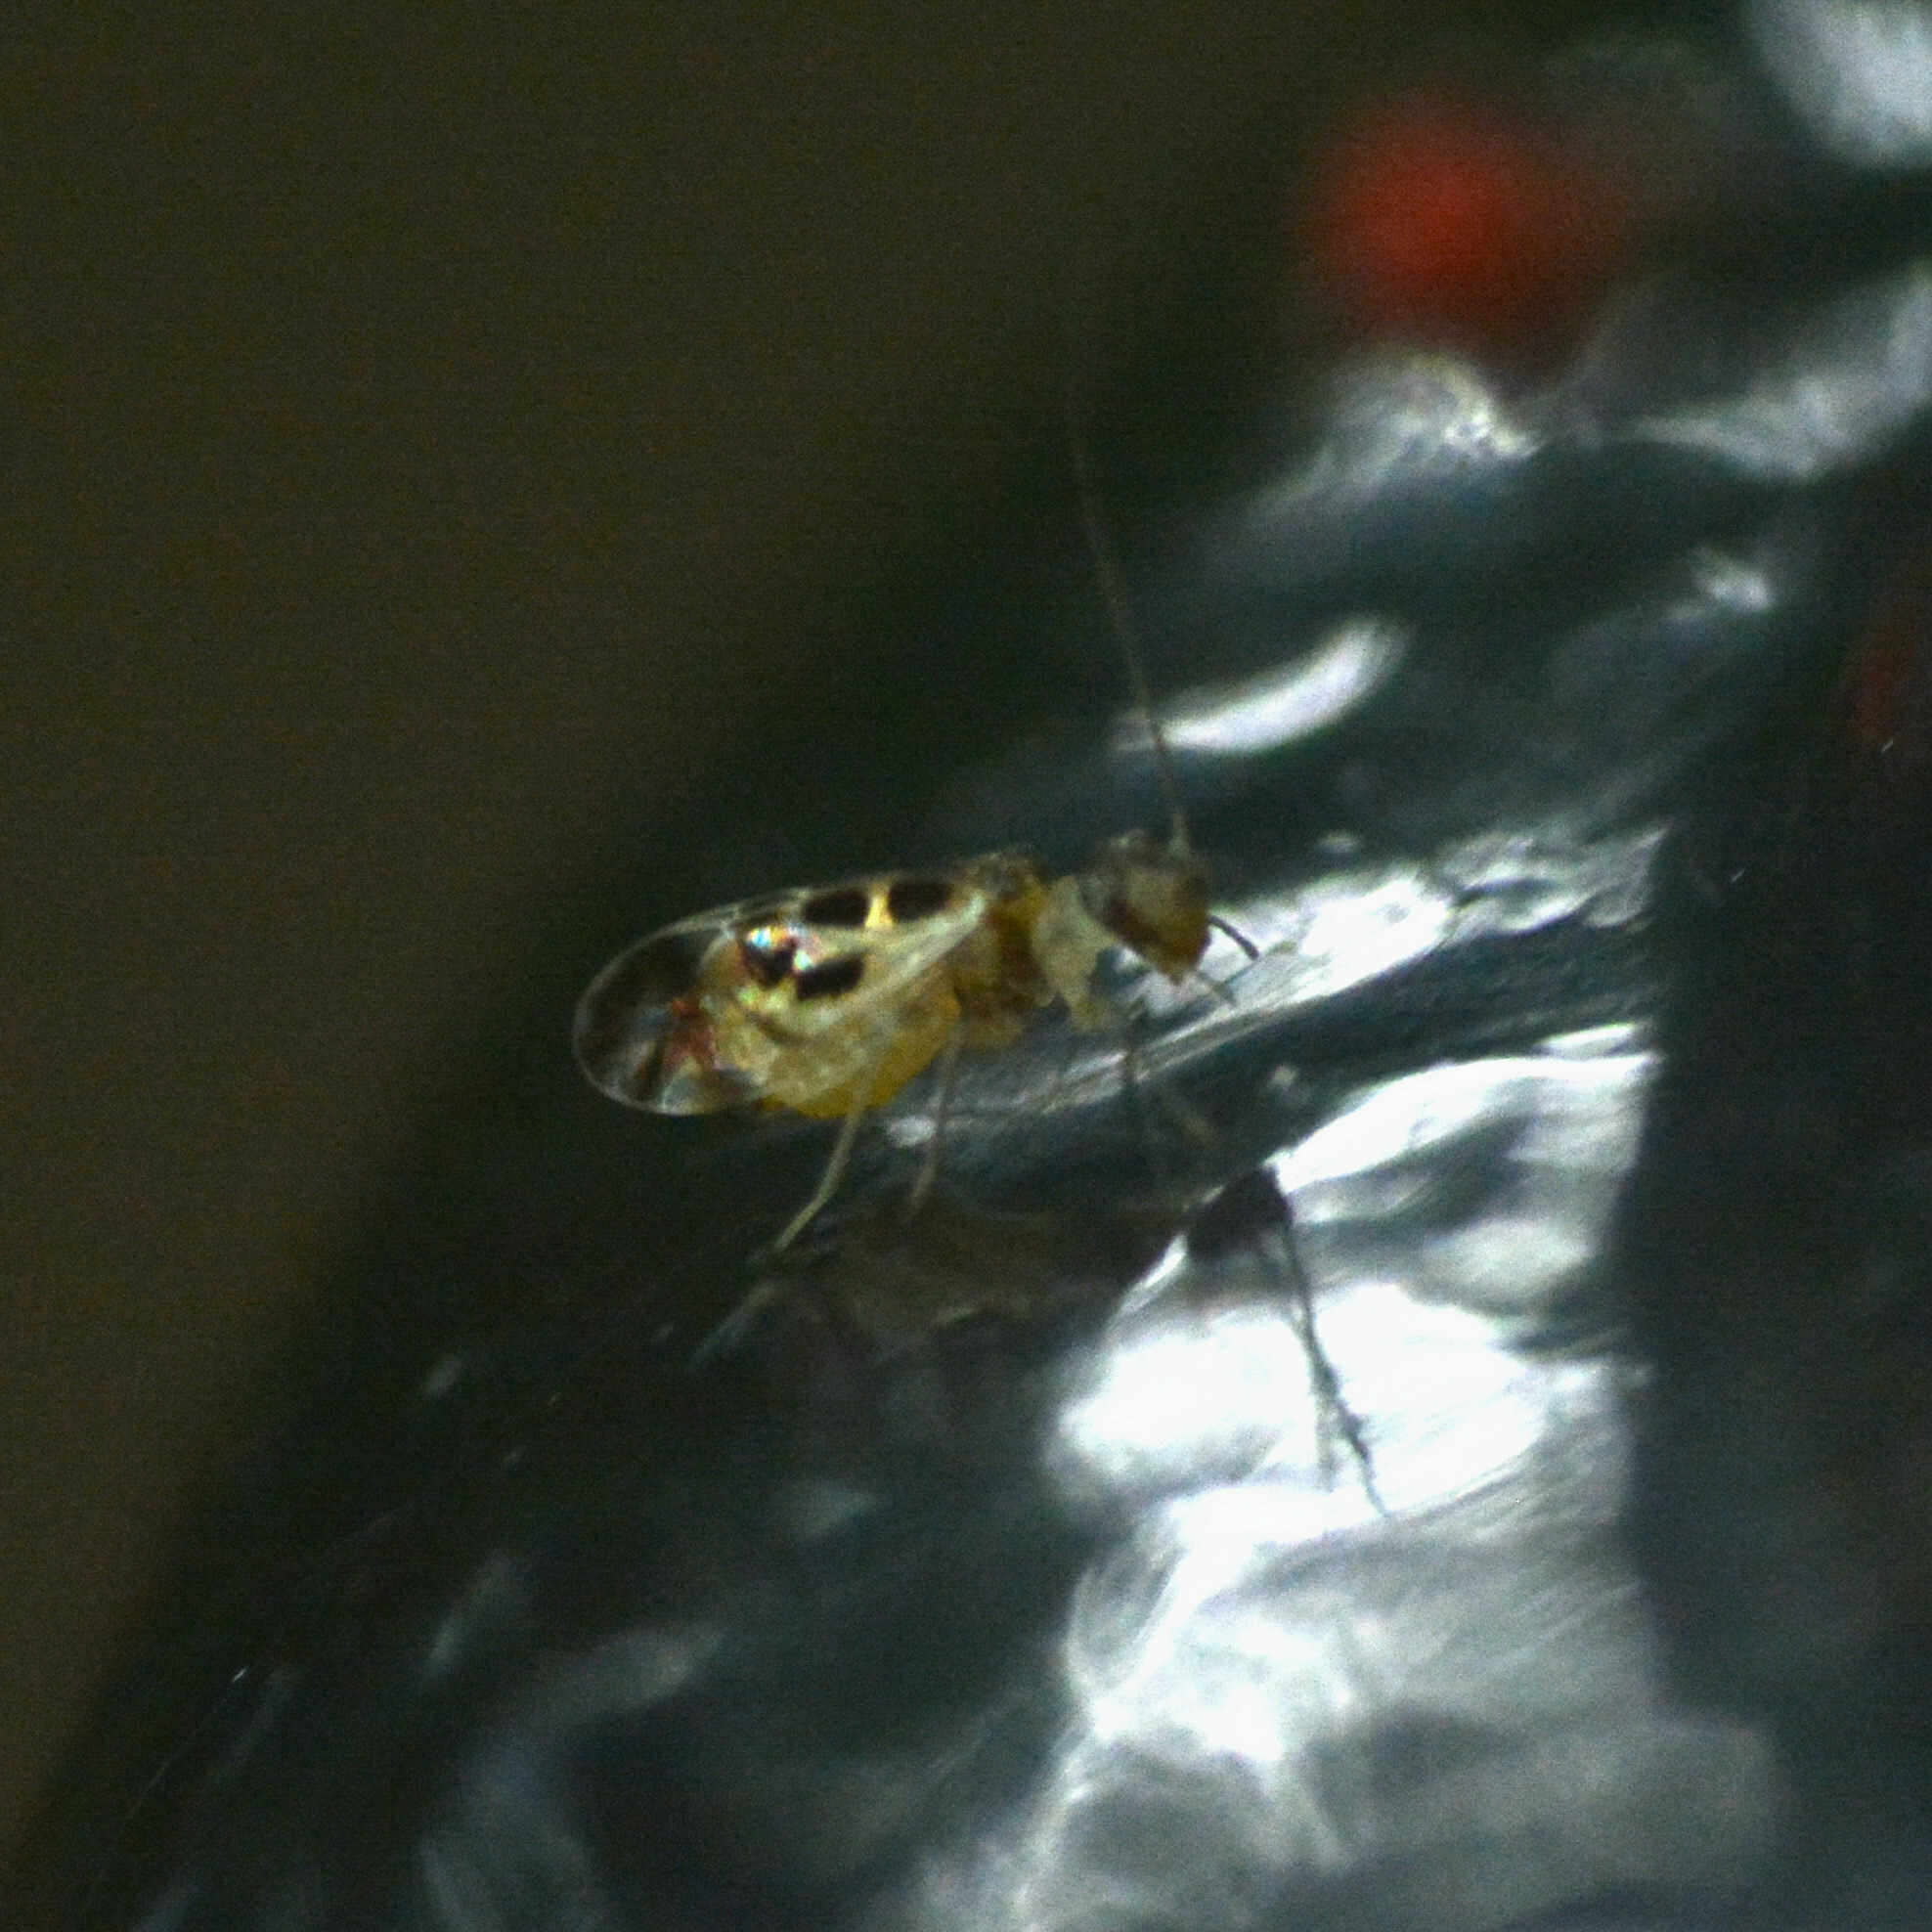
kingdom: Animalia
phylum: Arthropoda
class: Insecta
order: Psocodea
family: Stenopsocidae
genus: Graphopsocus
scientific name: Graphopsocus cruciatus
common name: Lizard bark louse
